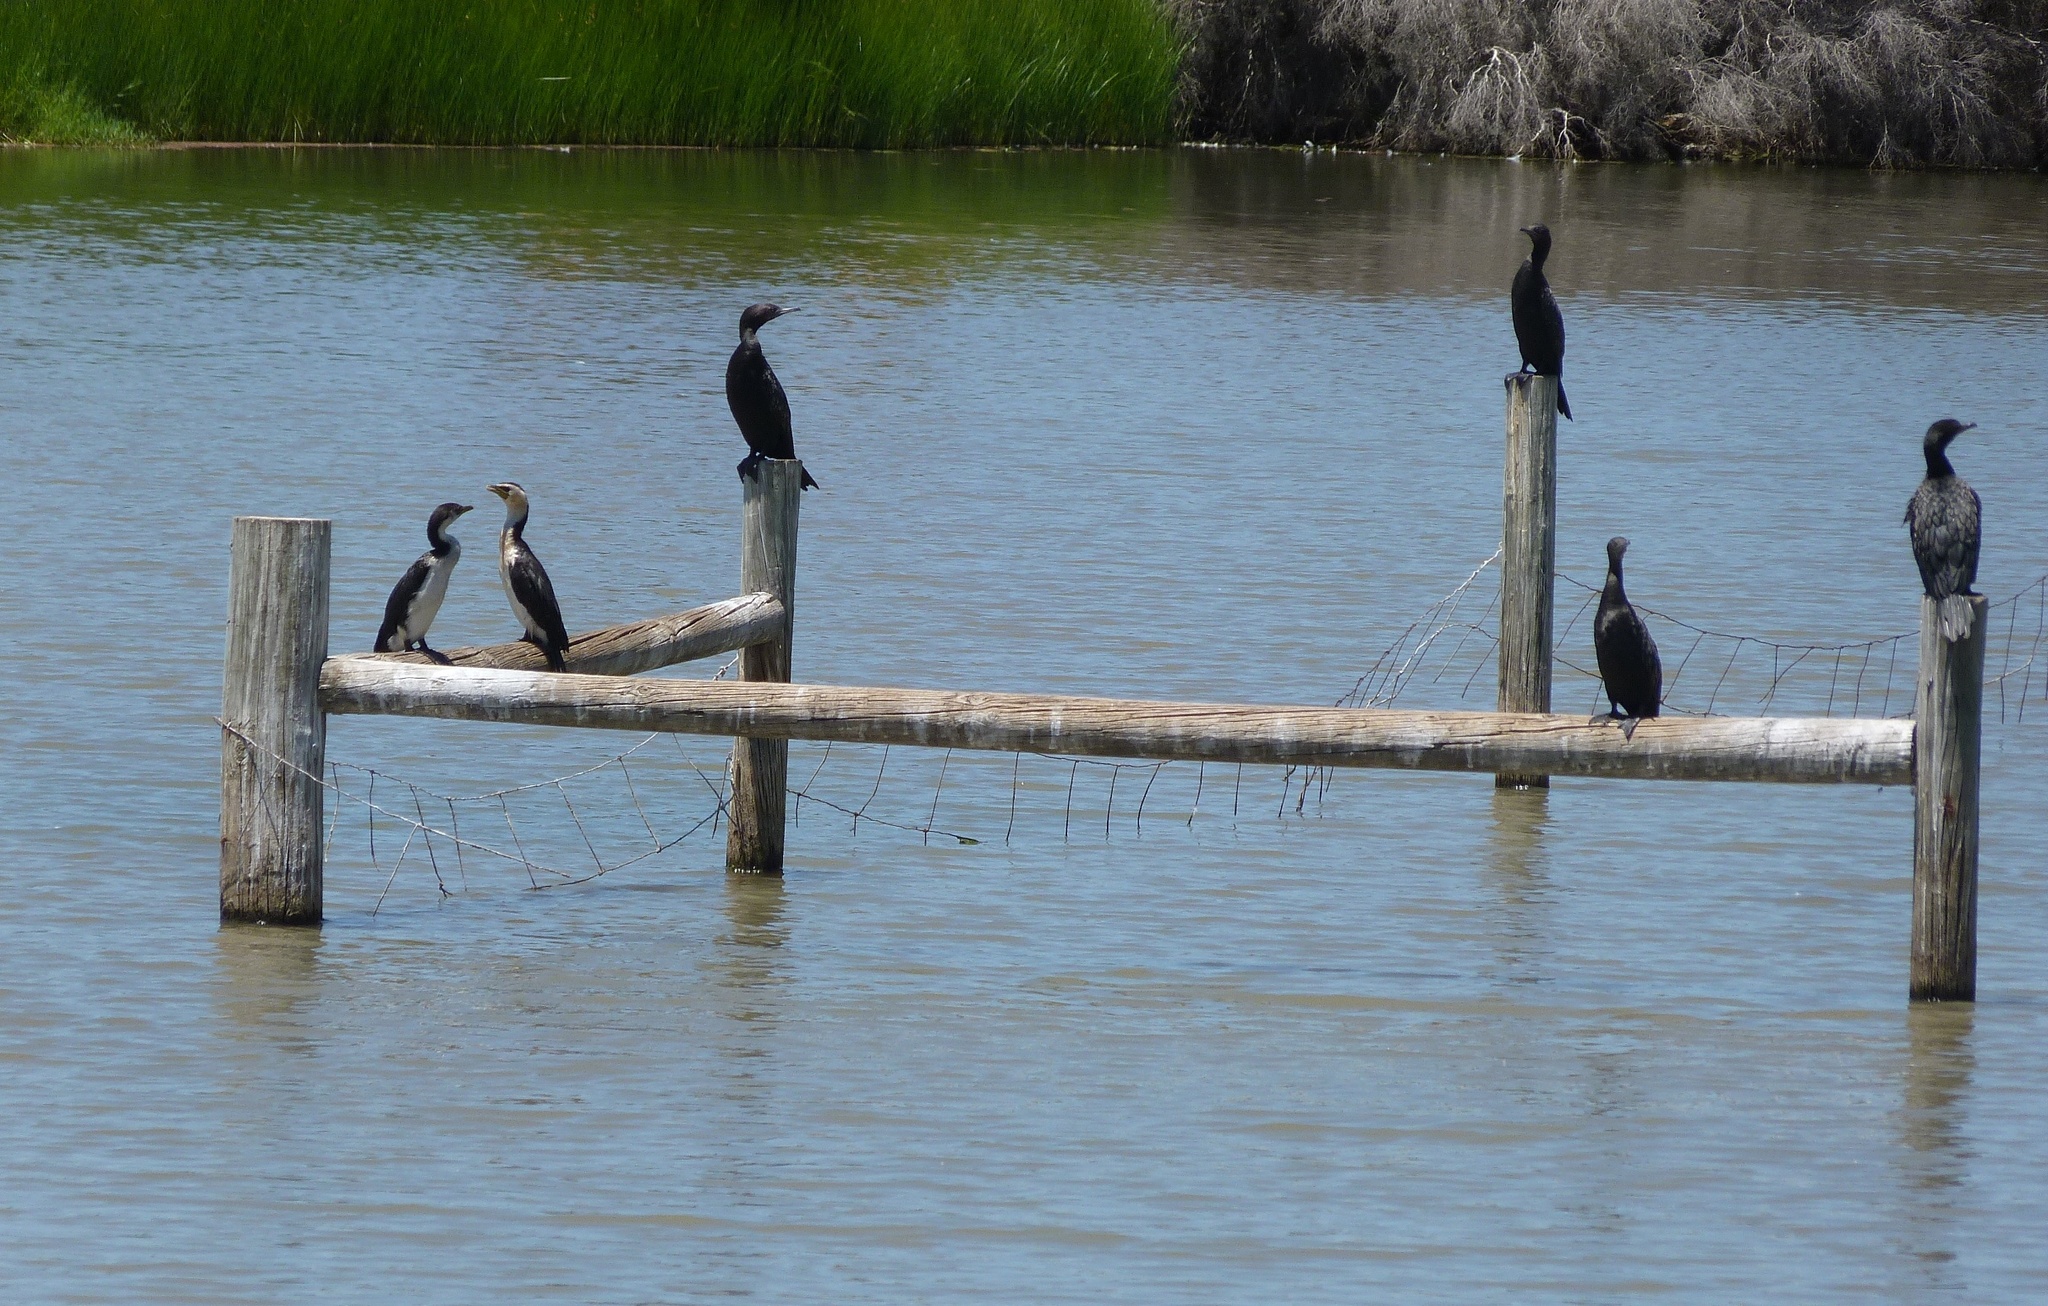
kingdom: Animalia
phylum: Chordata
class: Aves
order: Suliformes
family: Phalacrocoracidae
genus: Microcarbo
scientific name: Microcarbo melanoleucos
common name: Little pied cormorant
